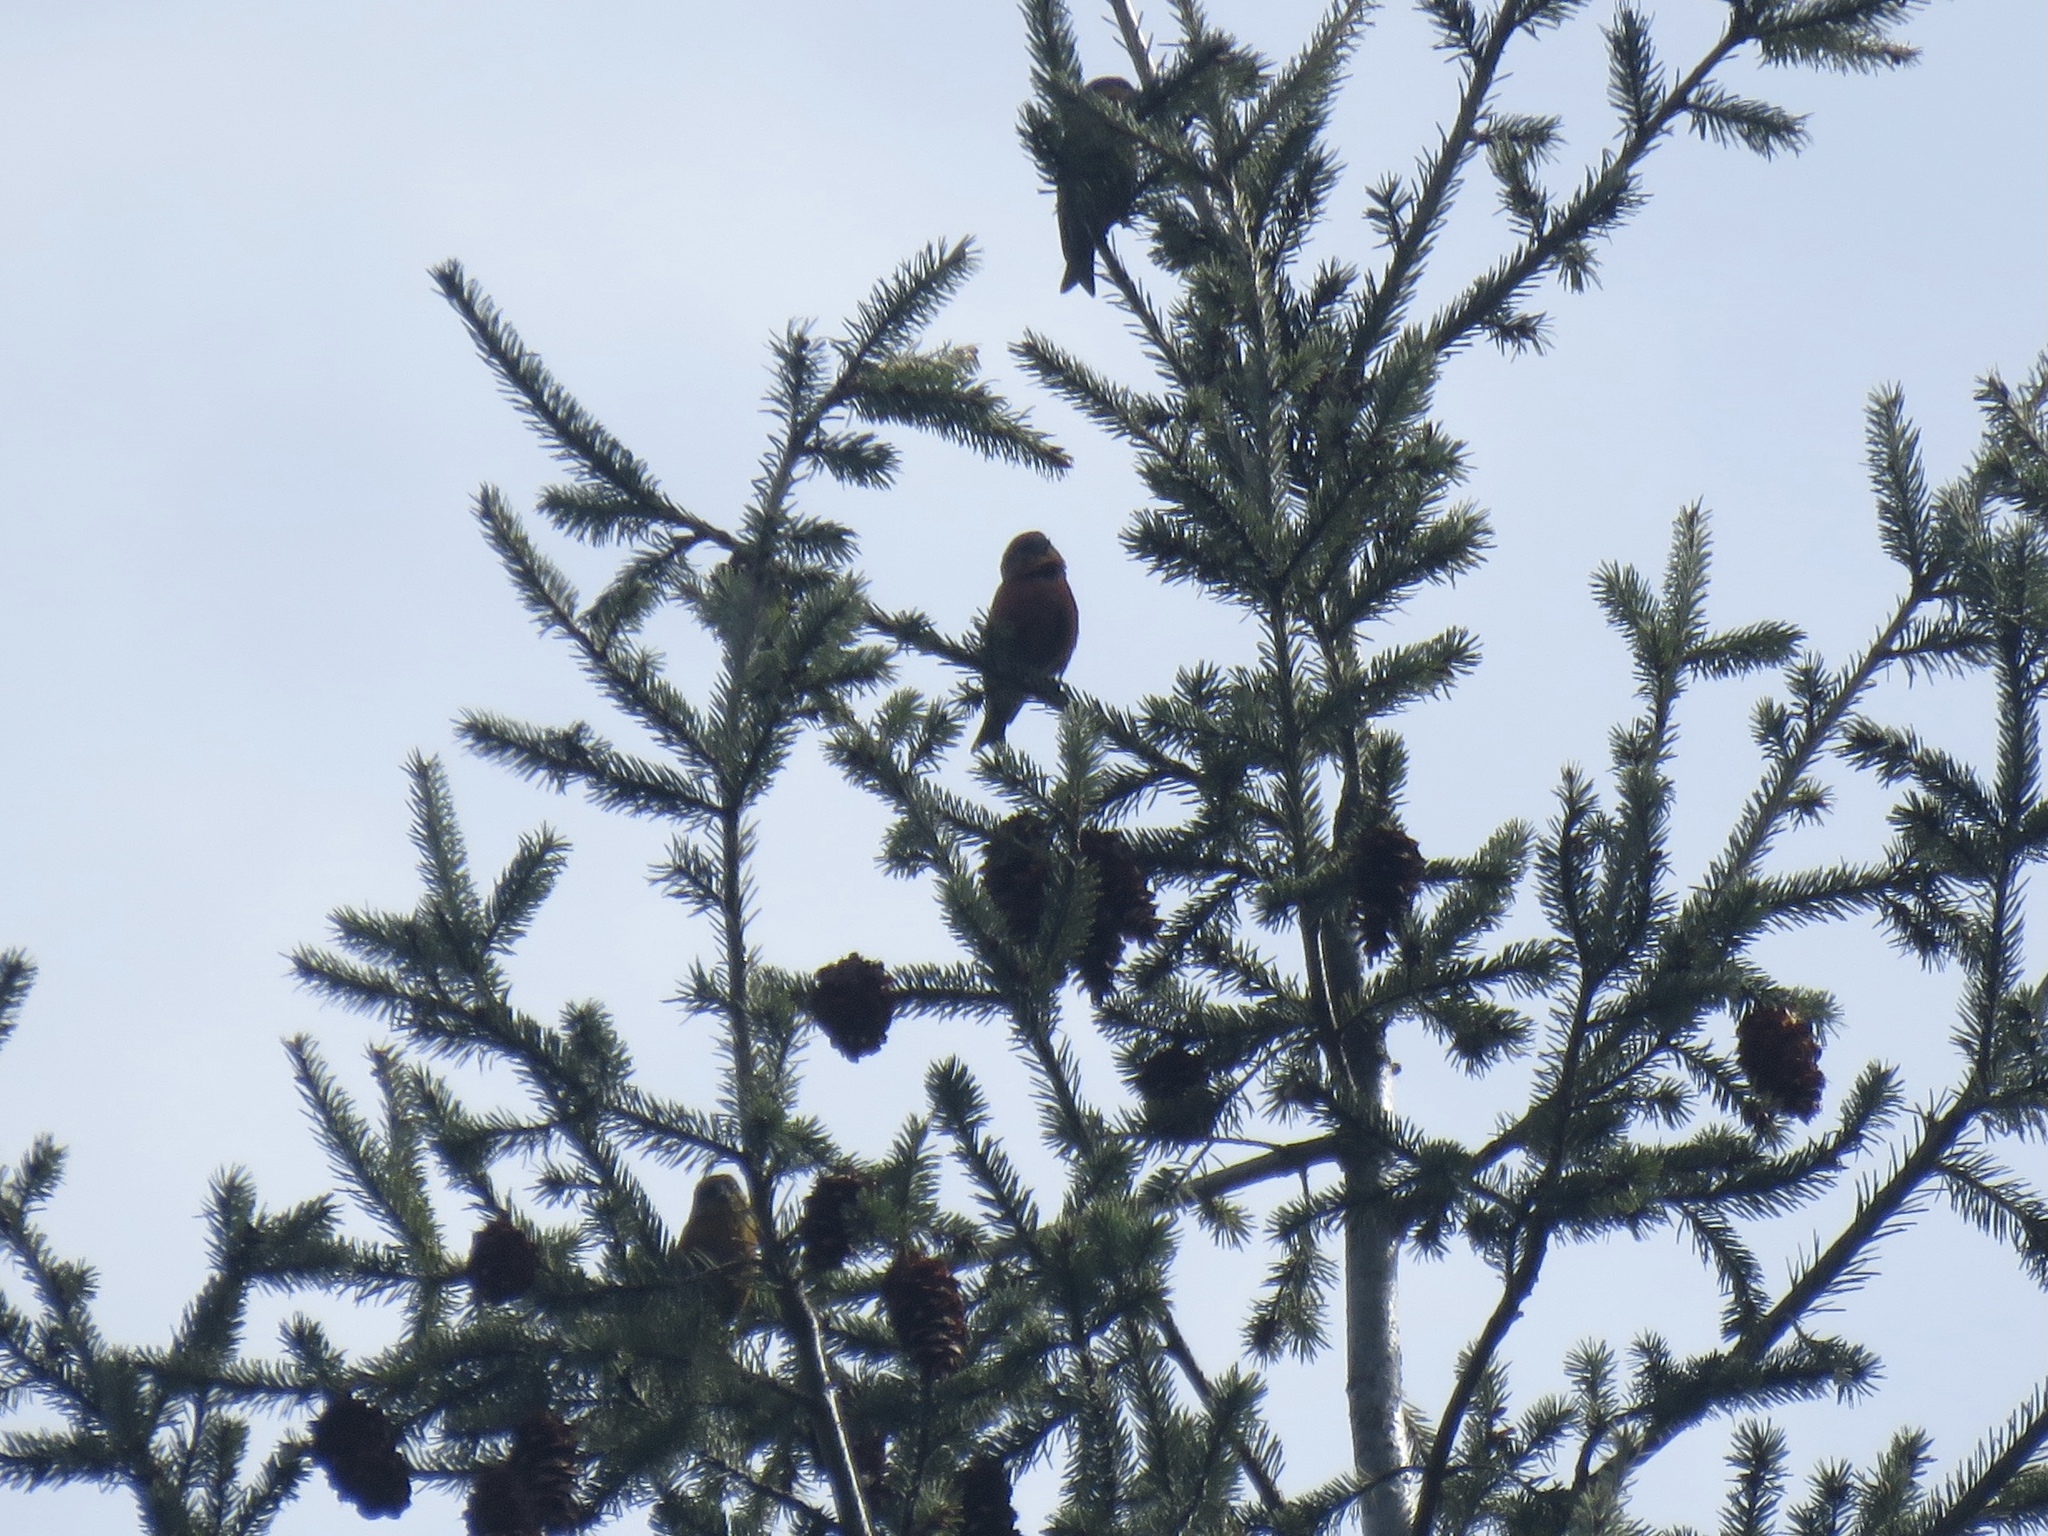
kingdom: Animalia
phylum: Chordata
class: Aves
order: Passeriformes
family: Fringillidae
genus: Loxia
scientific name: Loxia curvirostra
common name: Red crossbill
